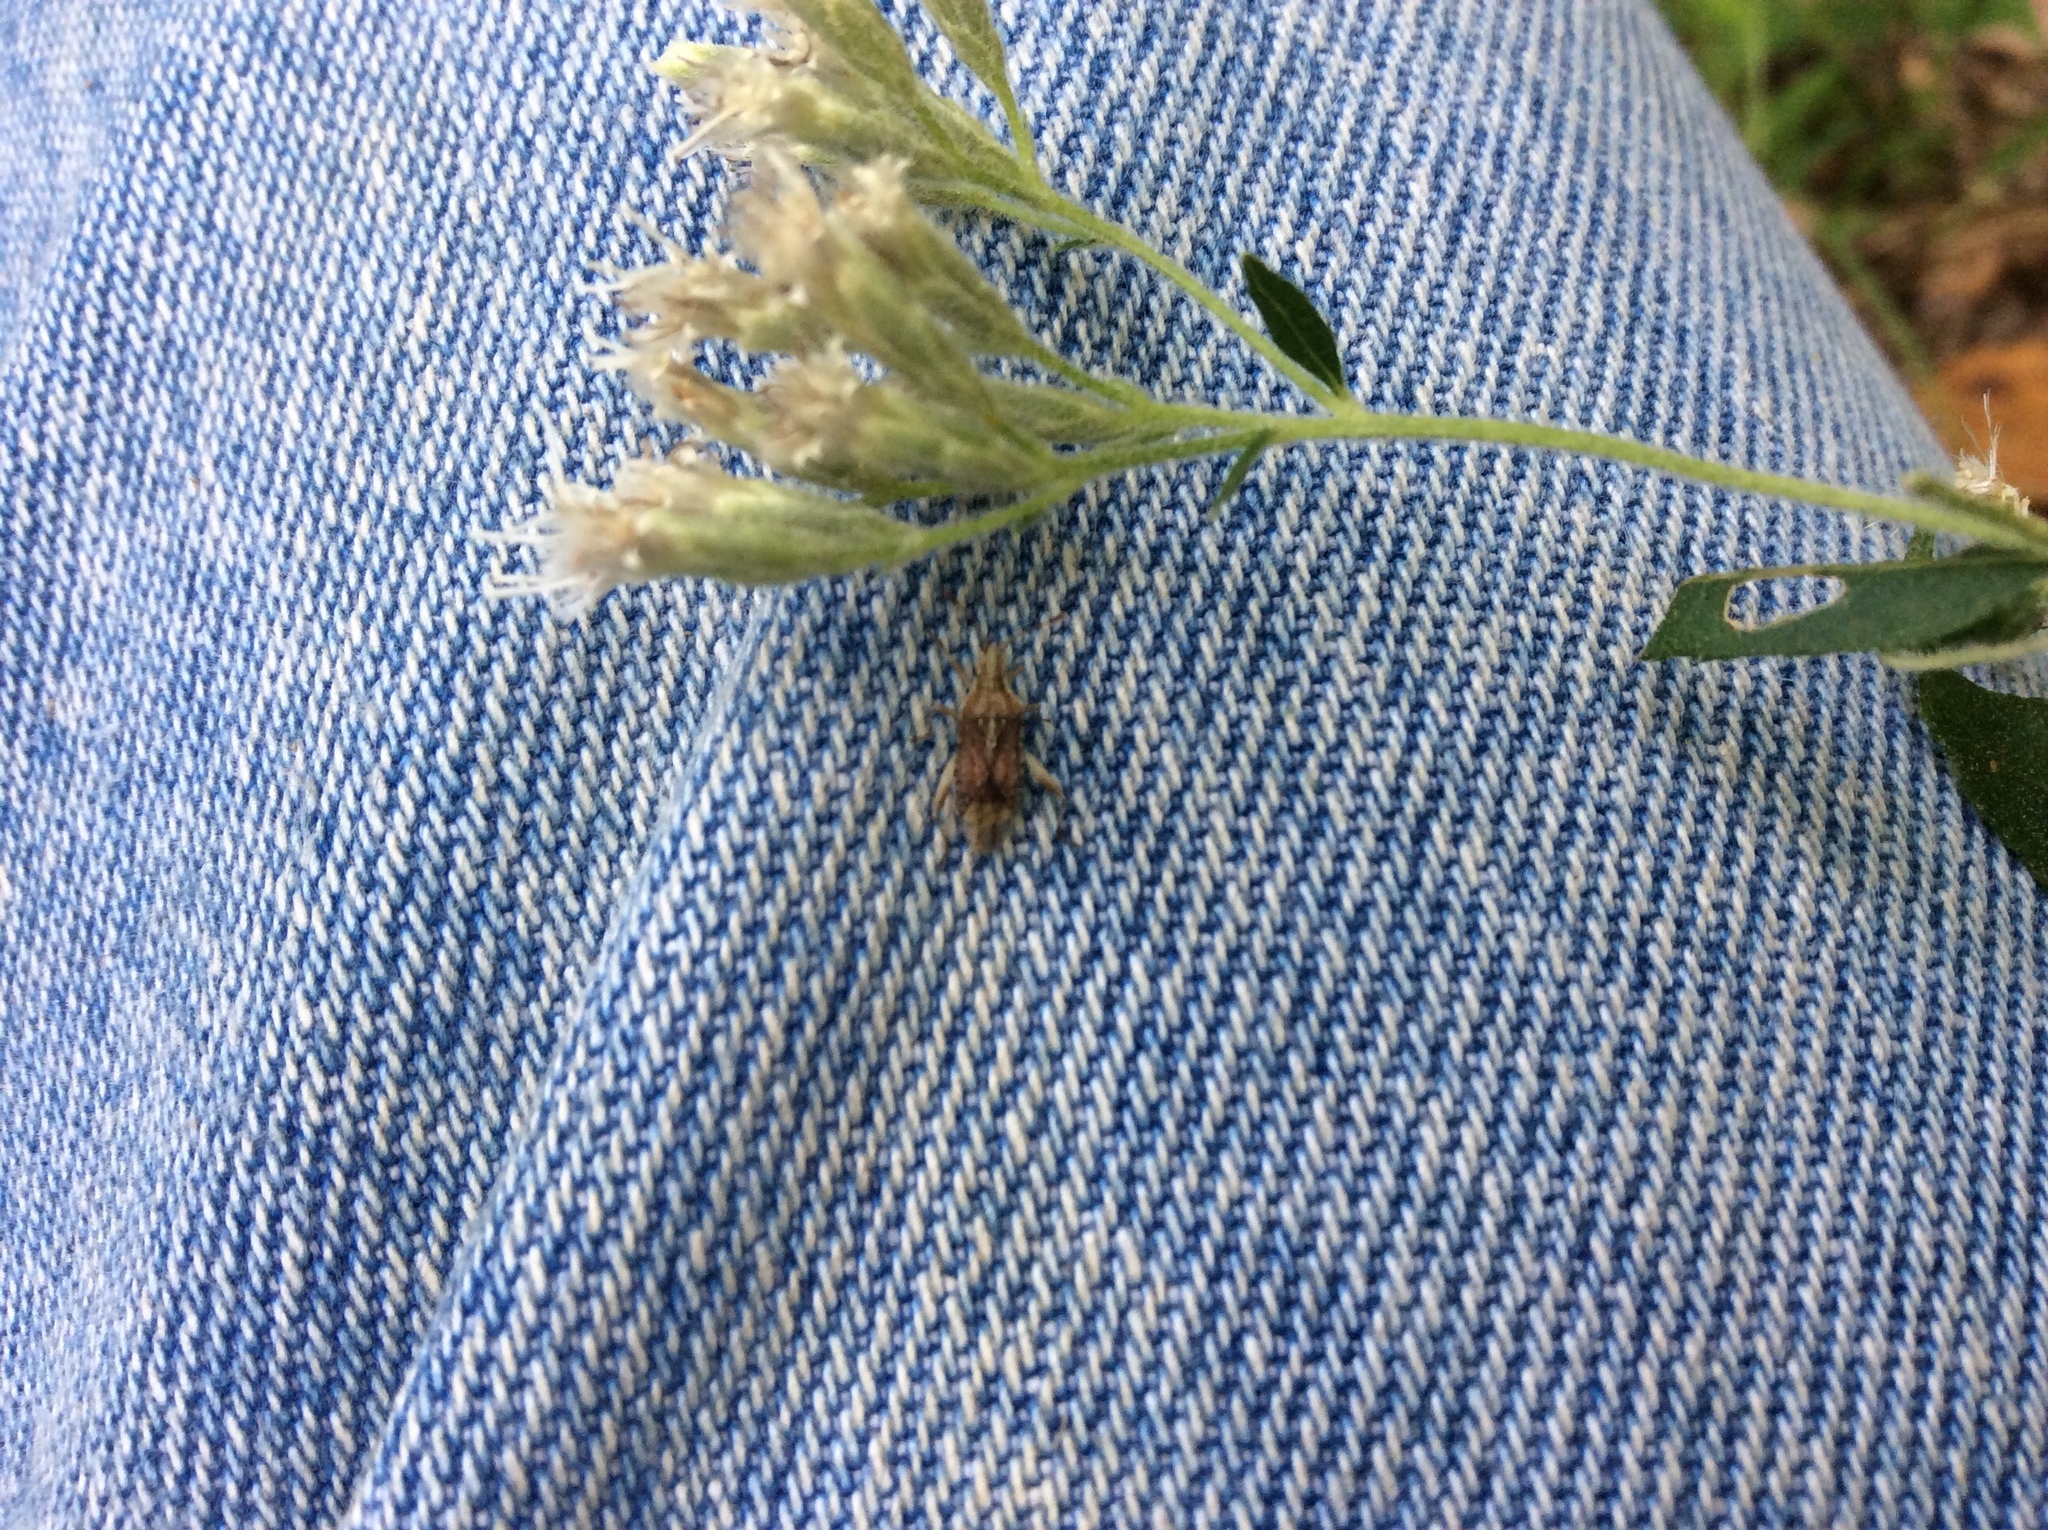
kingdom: Animalia
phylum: Arthropoda
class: Insecta
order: Hemiptera
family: Rhopalidae
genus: Harmostes
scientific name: Harmostes fraterculus
